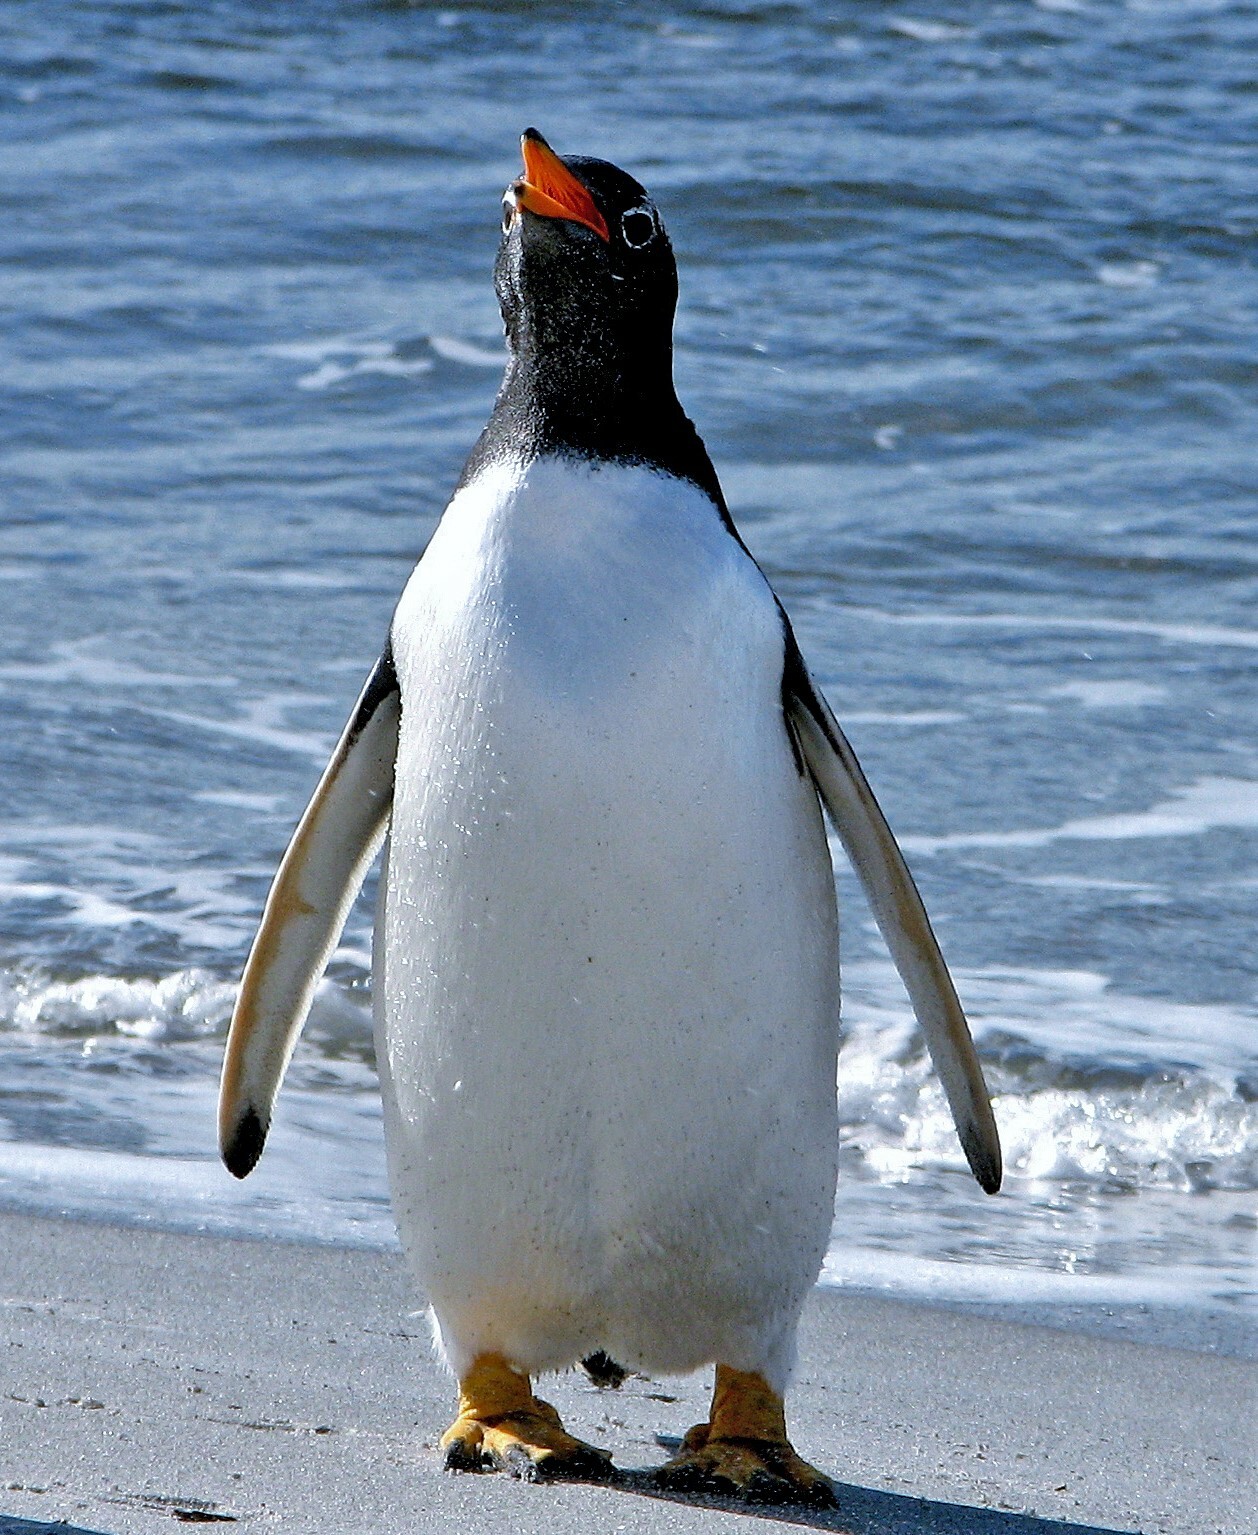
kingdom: Animalia
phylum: Chordata
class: Aves
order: Sphenisciformes
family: Spheniscidae
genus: Pygoscelis
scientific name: Pygoscelis papua
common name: Gentoo penguin
